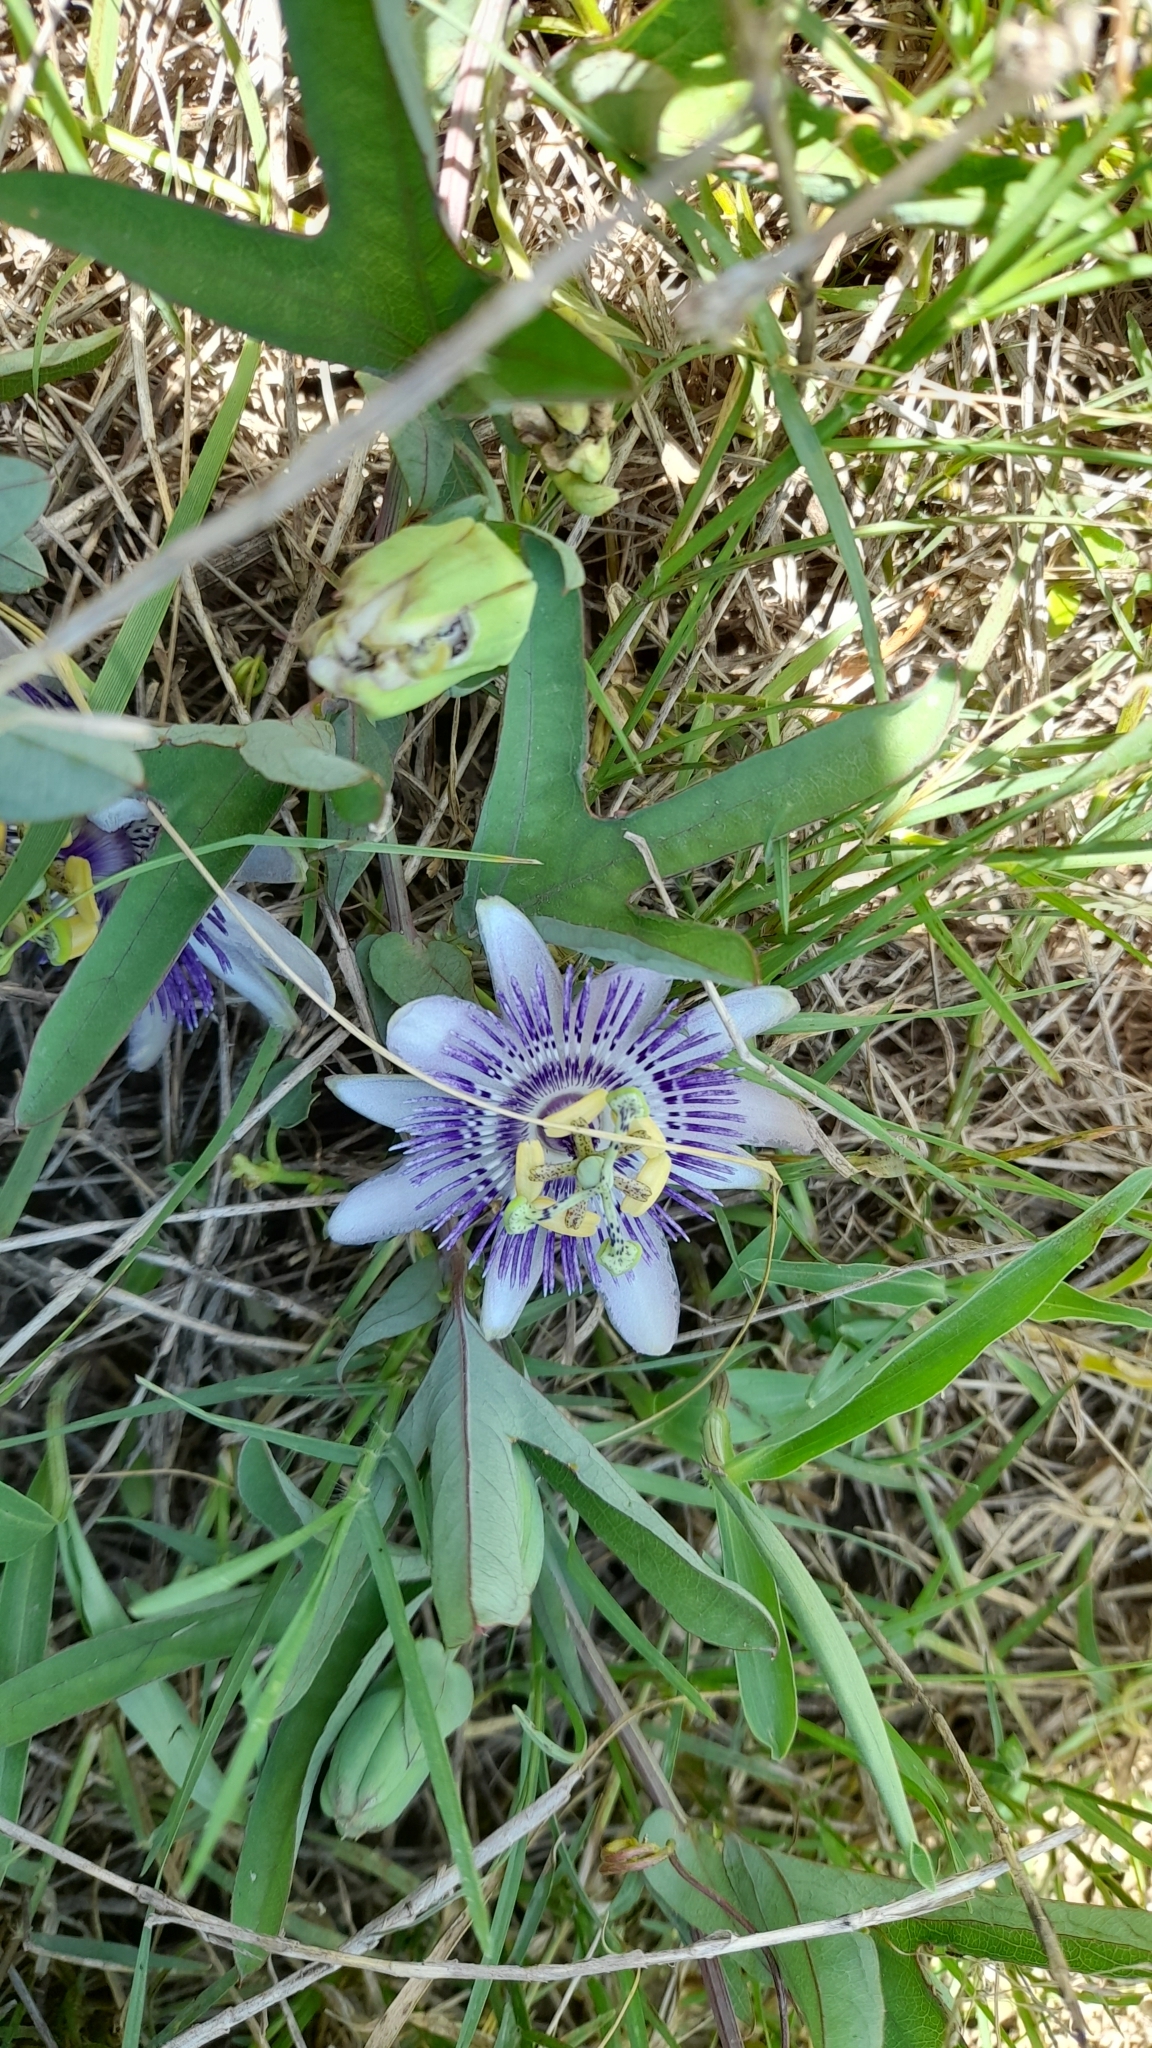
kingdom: Plantae
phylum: Tracheophyta
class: Magnoliopsida
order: Malpighiales
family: Passifloraceae
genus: Passiflora
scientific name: Passiflora mooreana
